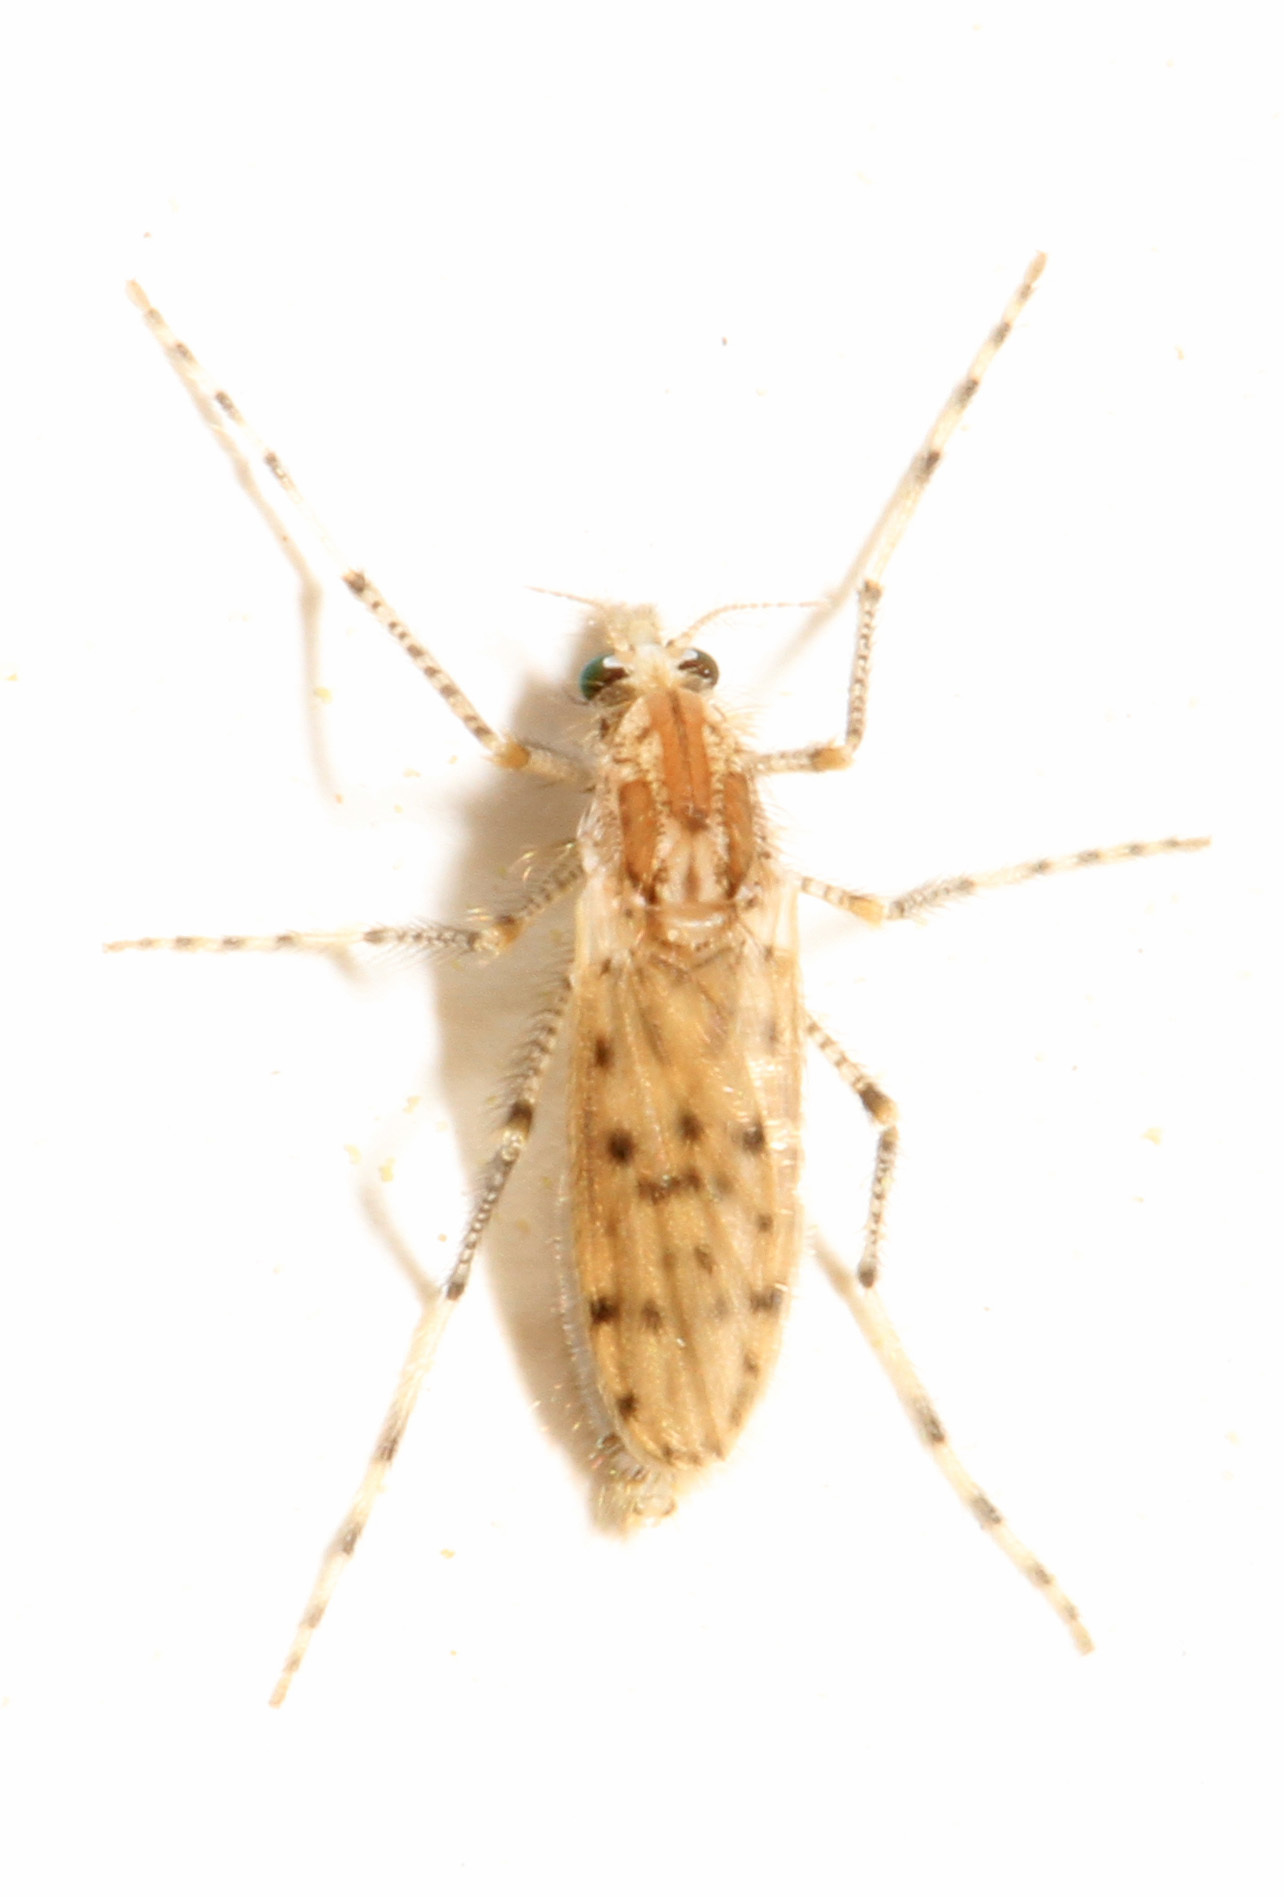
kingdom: Animalia
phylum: Arthropoda
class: Insecta
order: Diptera
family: Chaoboridae
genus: Chaoborus
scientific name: Chaoborus punctipennis
